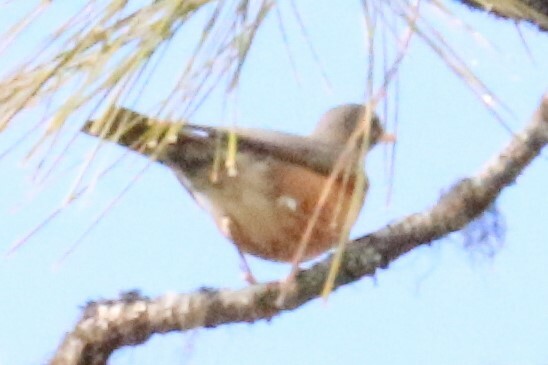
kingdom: Animalia
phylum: Chordata
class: Aves
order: Passeriformes
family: Turdidae
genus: Turdus
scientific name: Turdus migratorius
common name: American robin
